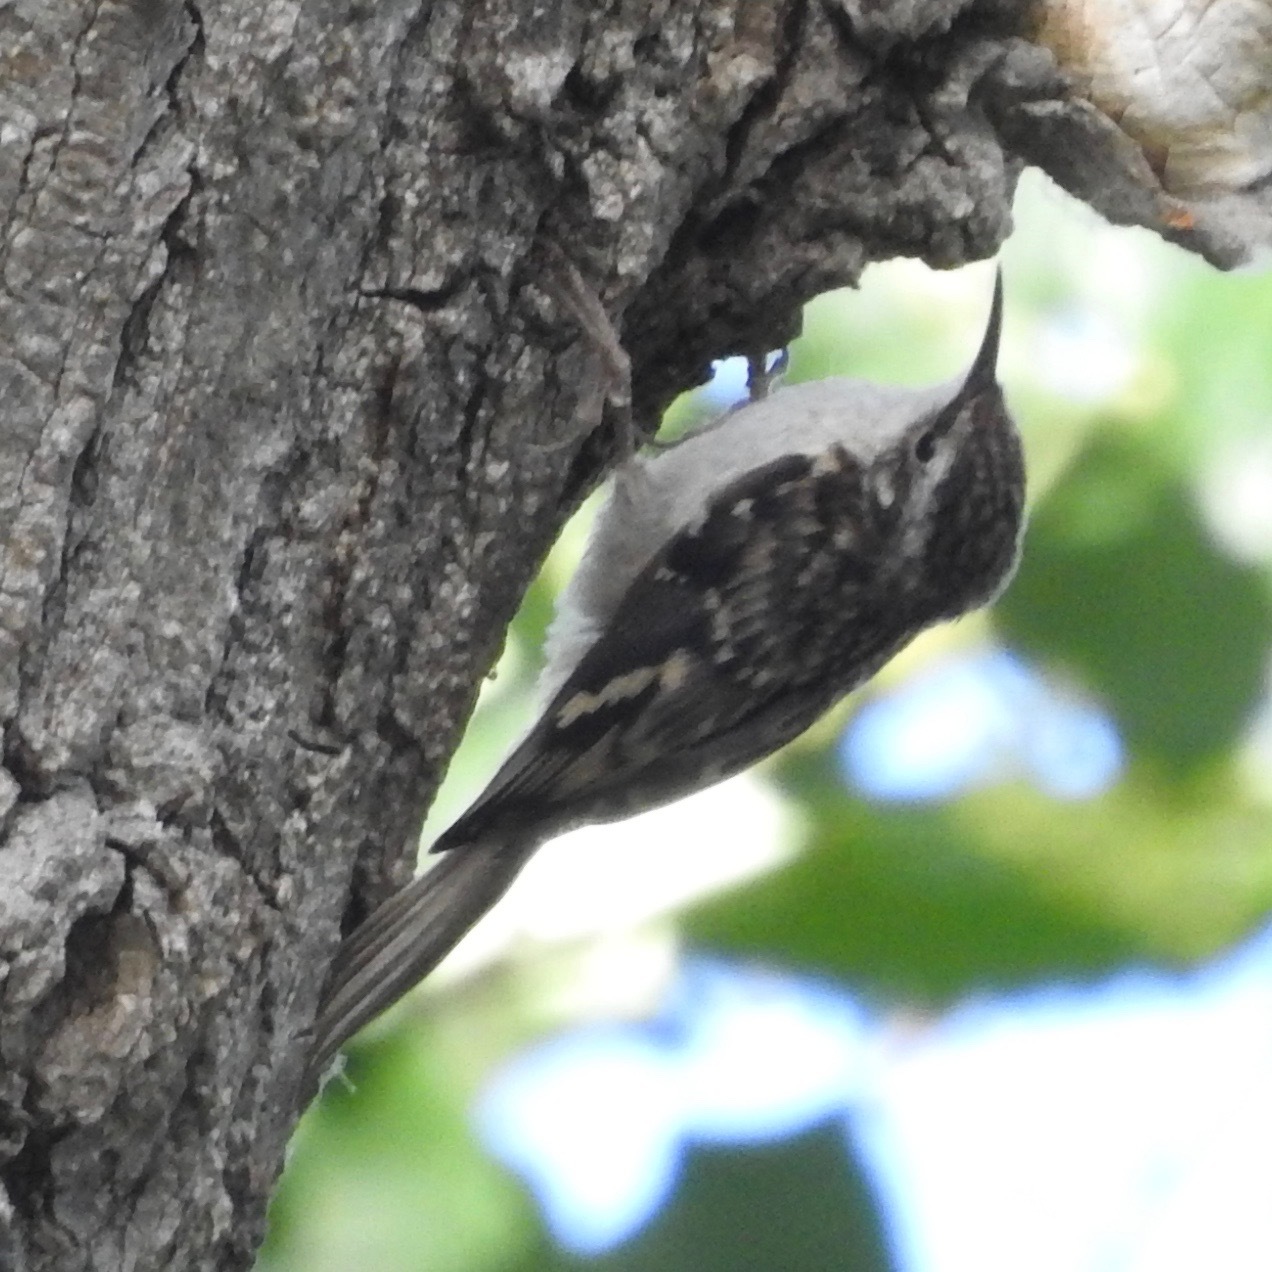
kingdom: Animalia
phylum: Chordata
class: Aves
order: Passeriformes
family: Certhiidae
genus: Certhia
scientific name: Certhia americana
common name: Brown creeper
